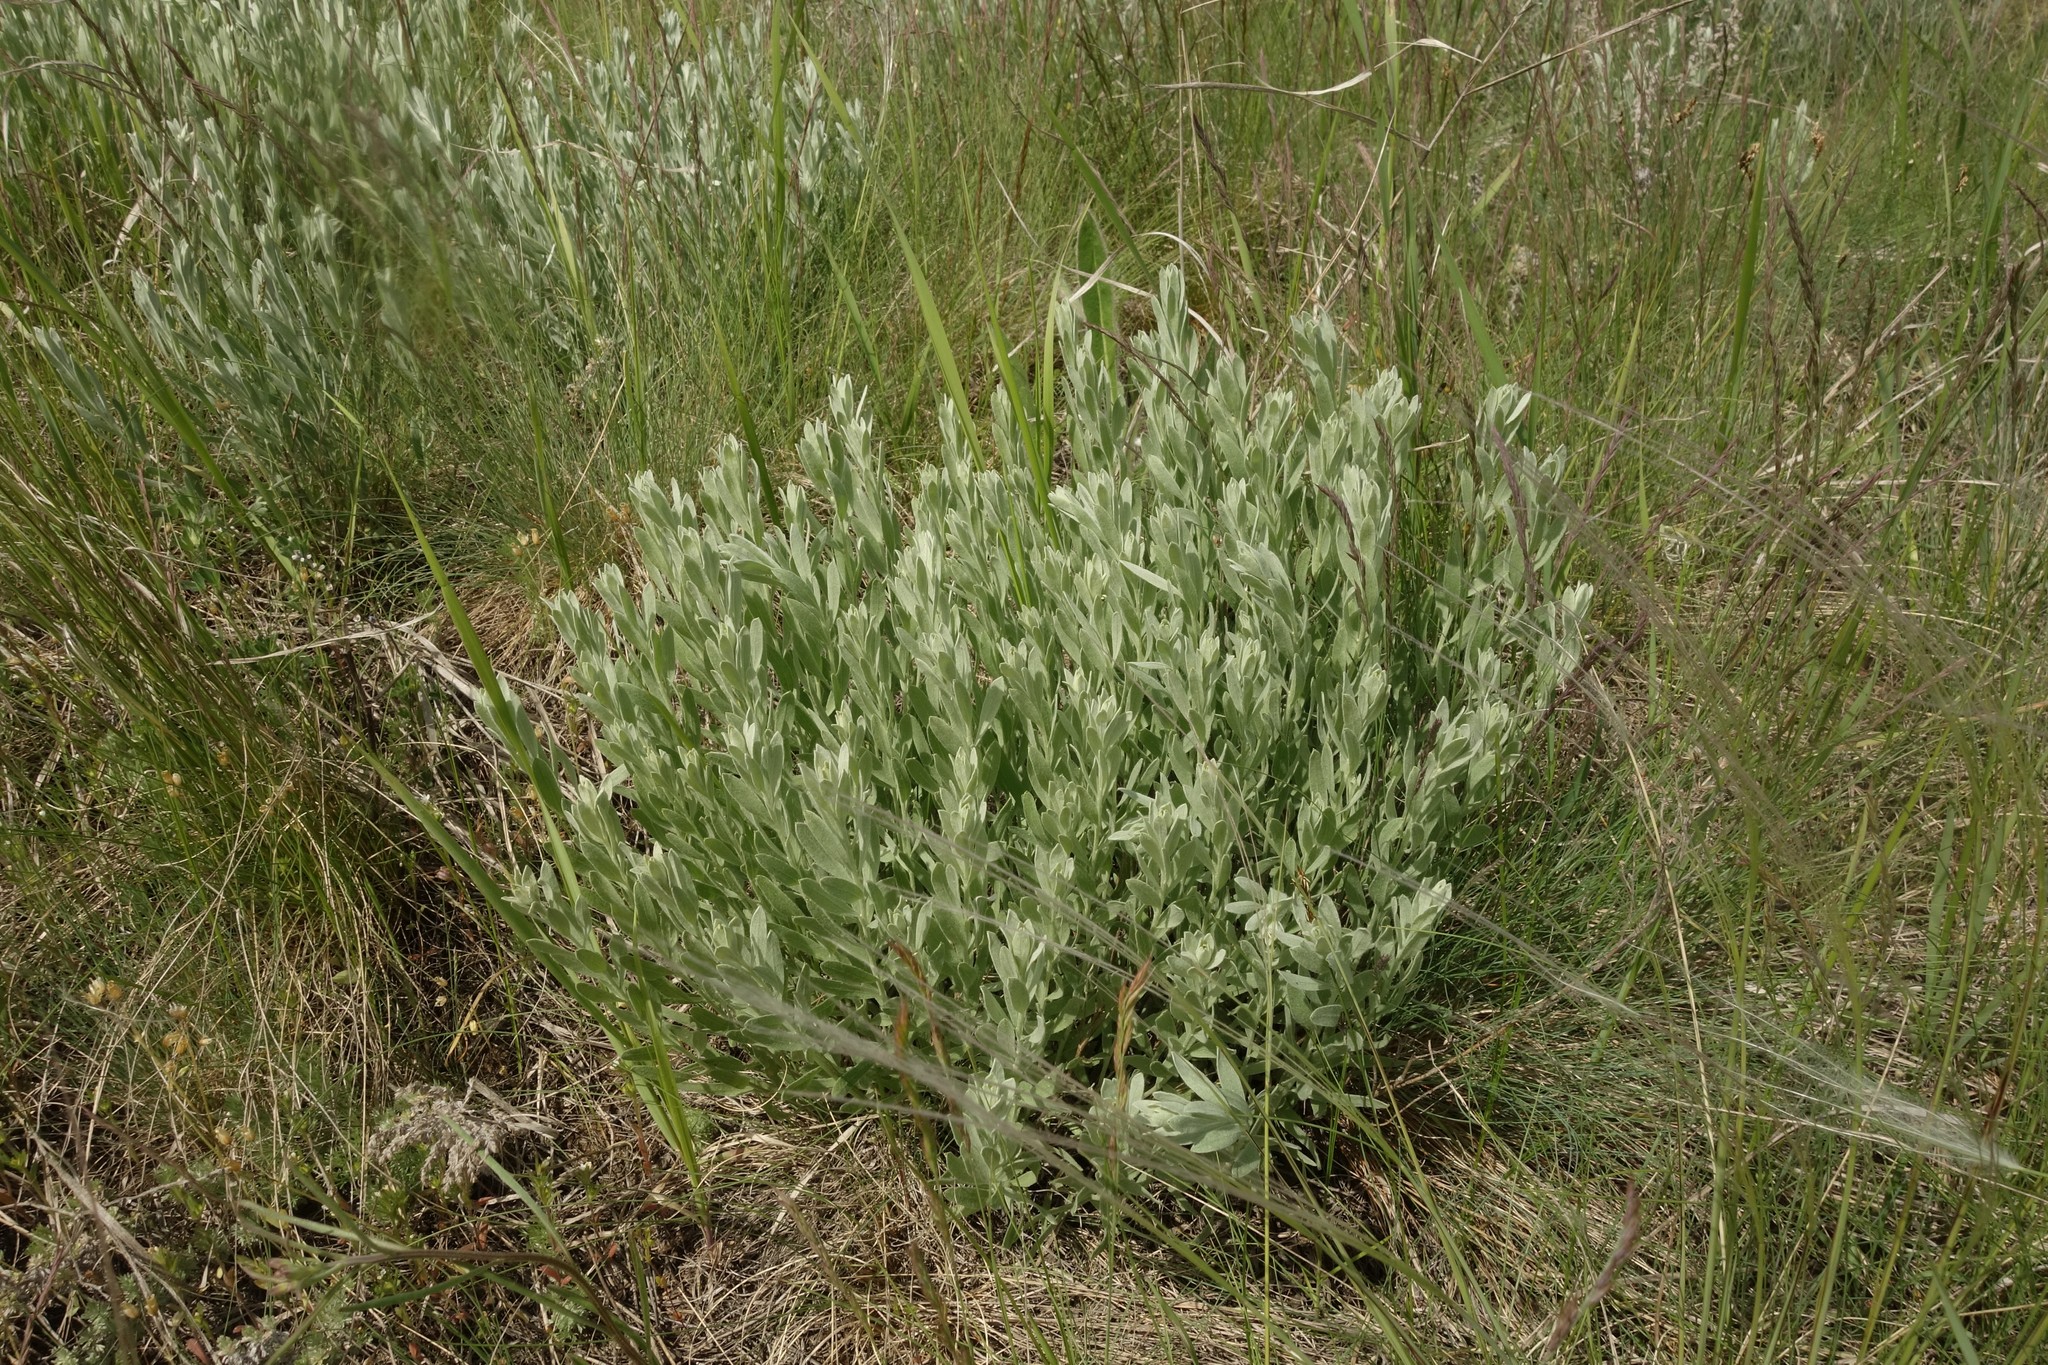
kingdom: Plantae
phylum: Tracheophyta
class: Magnoliopsida
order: Asterales
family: Asteraceae
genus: Galatella
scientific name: Galatella villosa
